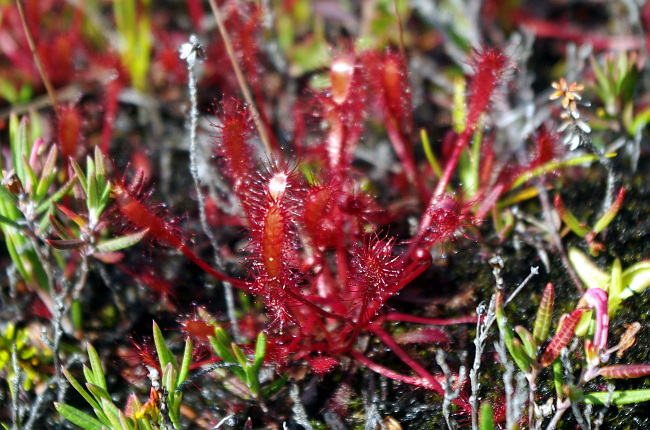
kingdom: Plantae
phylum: Tracheophyta
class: Magnoliopsida
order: Caryophyllales
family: Droseraceae
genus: Drosera
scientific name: Drosera anglica
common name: Great sundew
